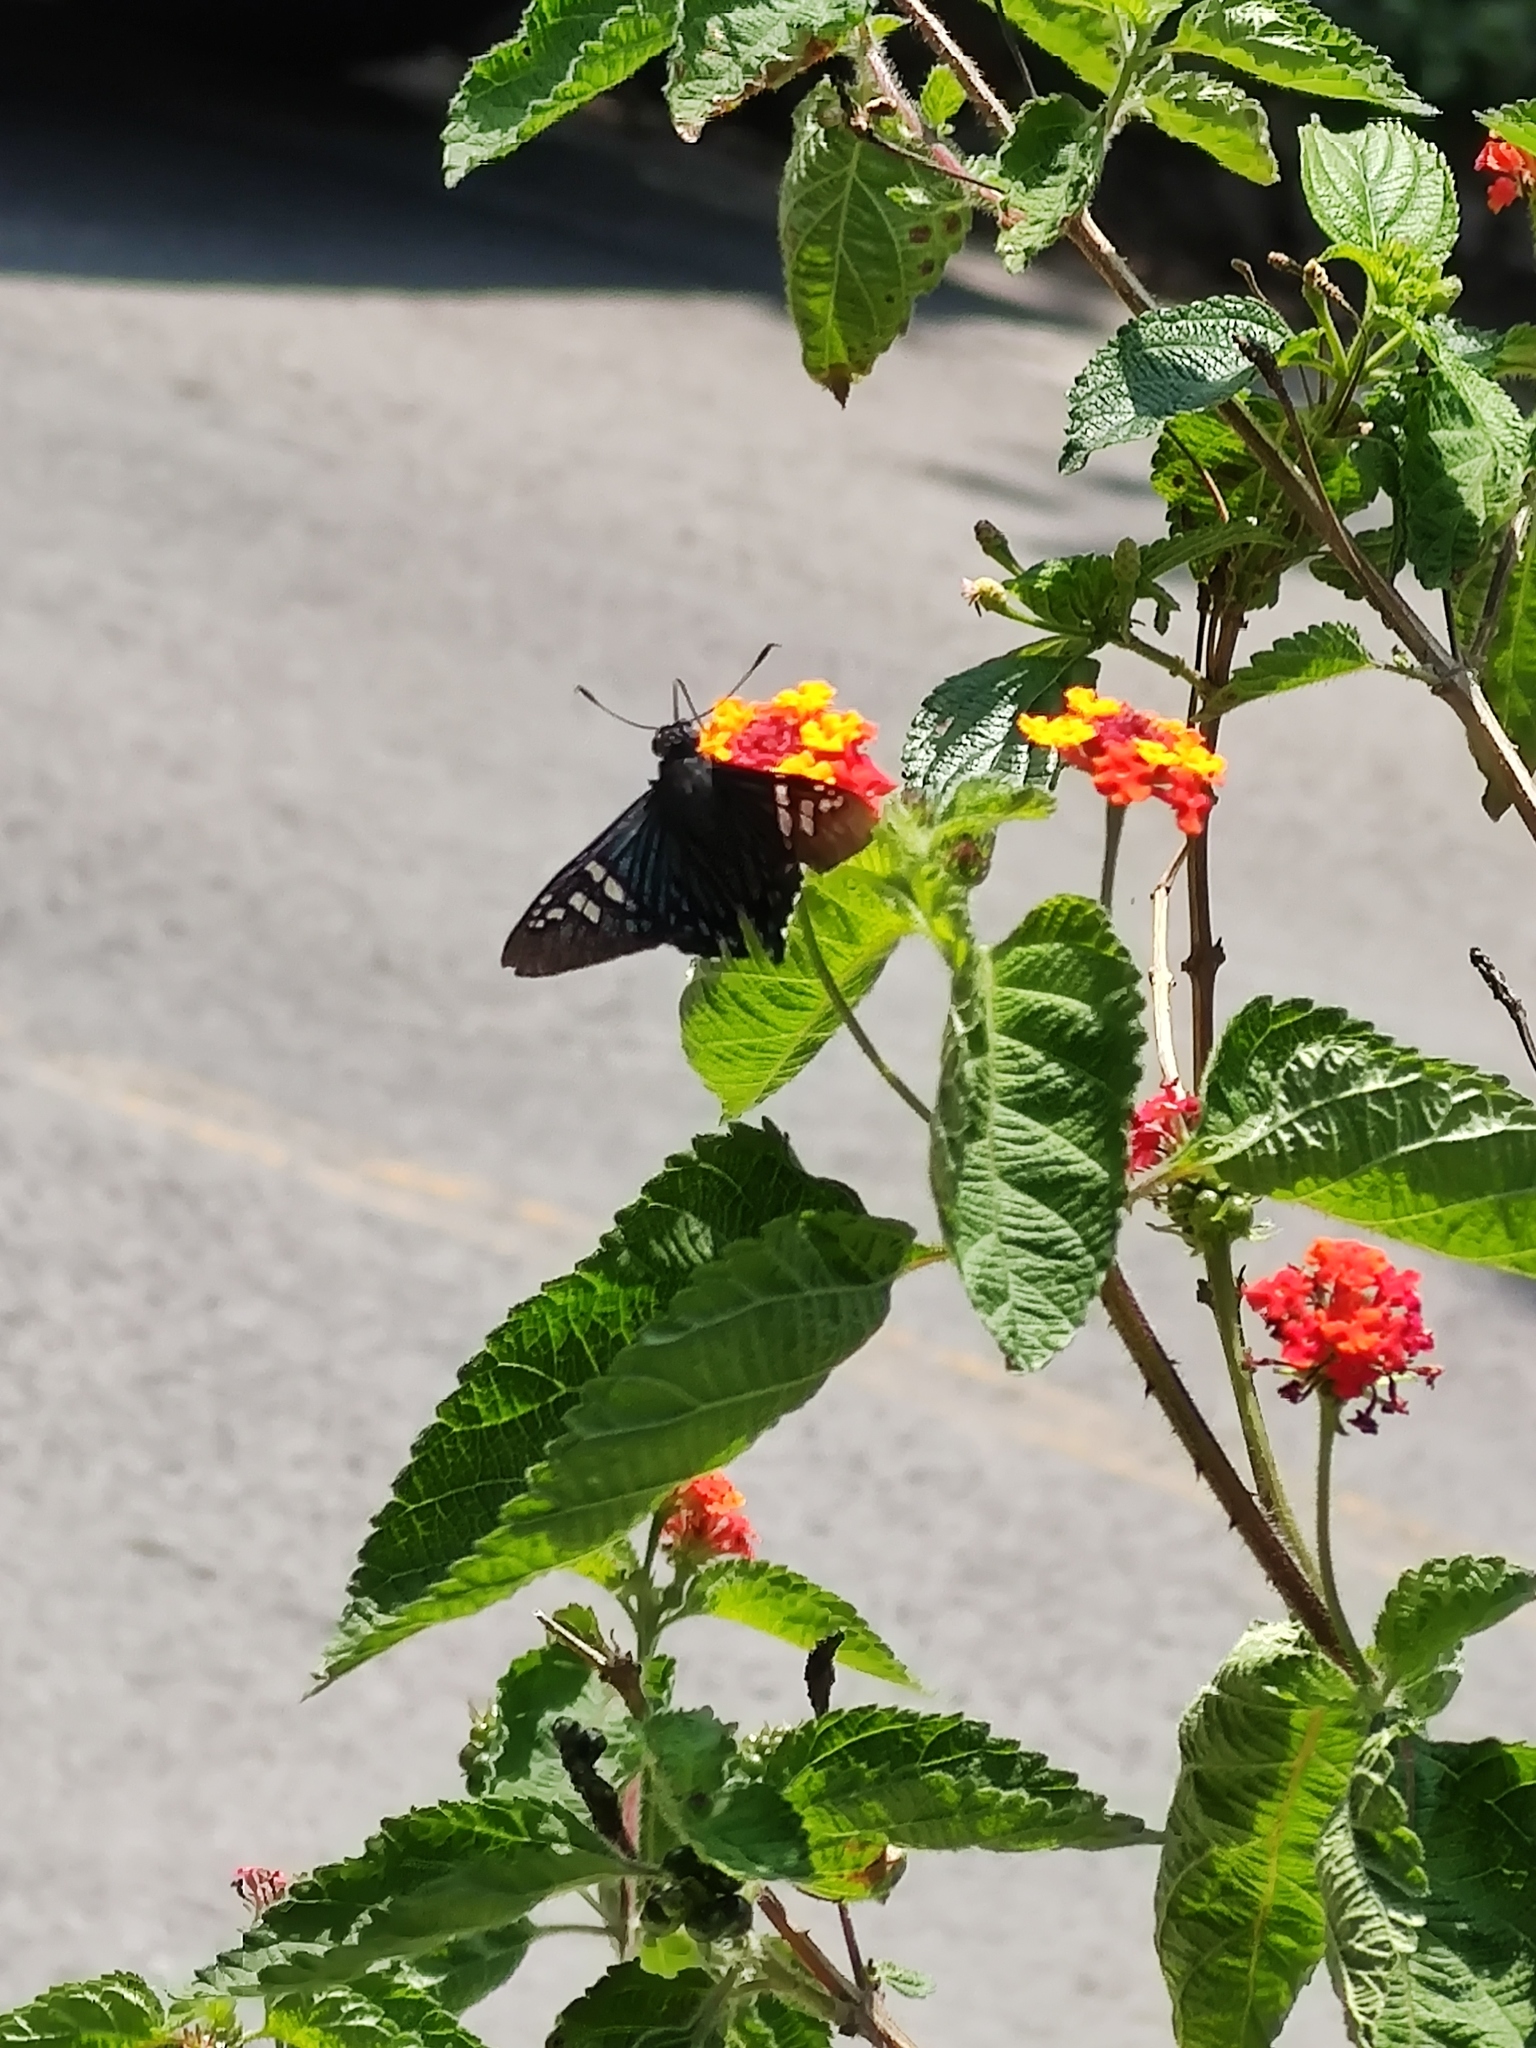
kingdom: Animalia
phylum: Arthropoda
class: Insecta
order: Lepidoptera
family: Hesperiidae
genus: Phocides
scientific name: Phocides urania
